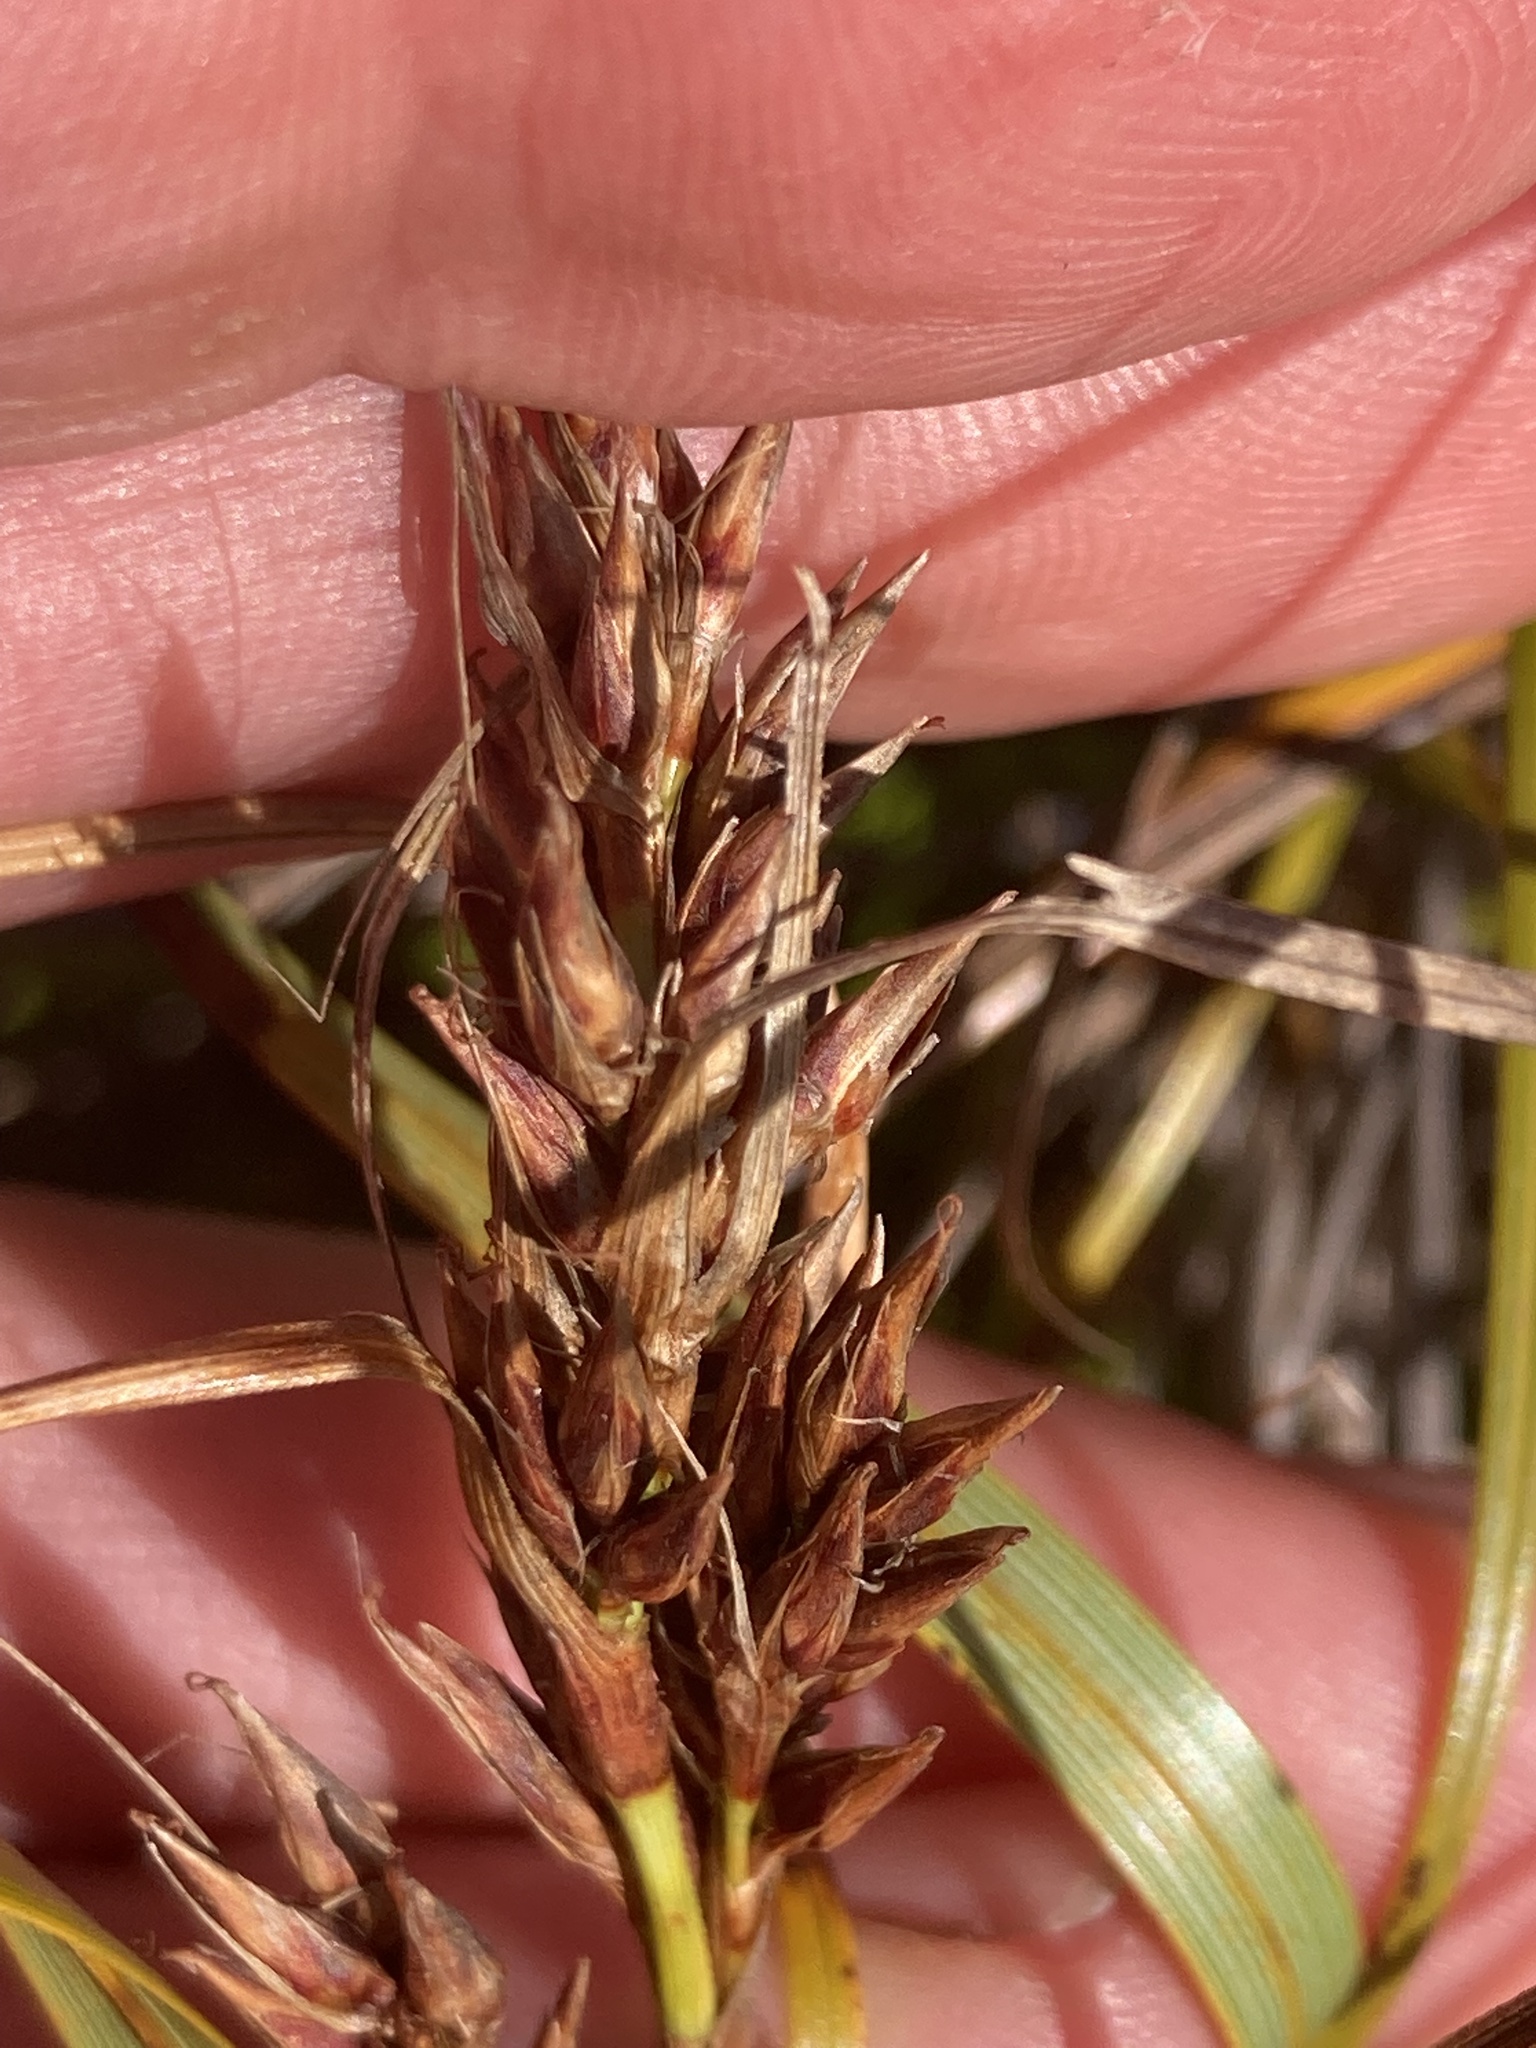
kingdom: Plantae
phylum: Tracheophyta
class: Liliopsida
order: Poales
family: Cyperaceae
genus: Morelotia
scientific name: Morelotia affinis
